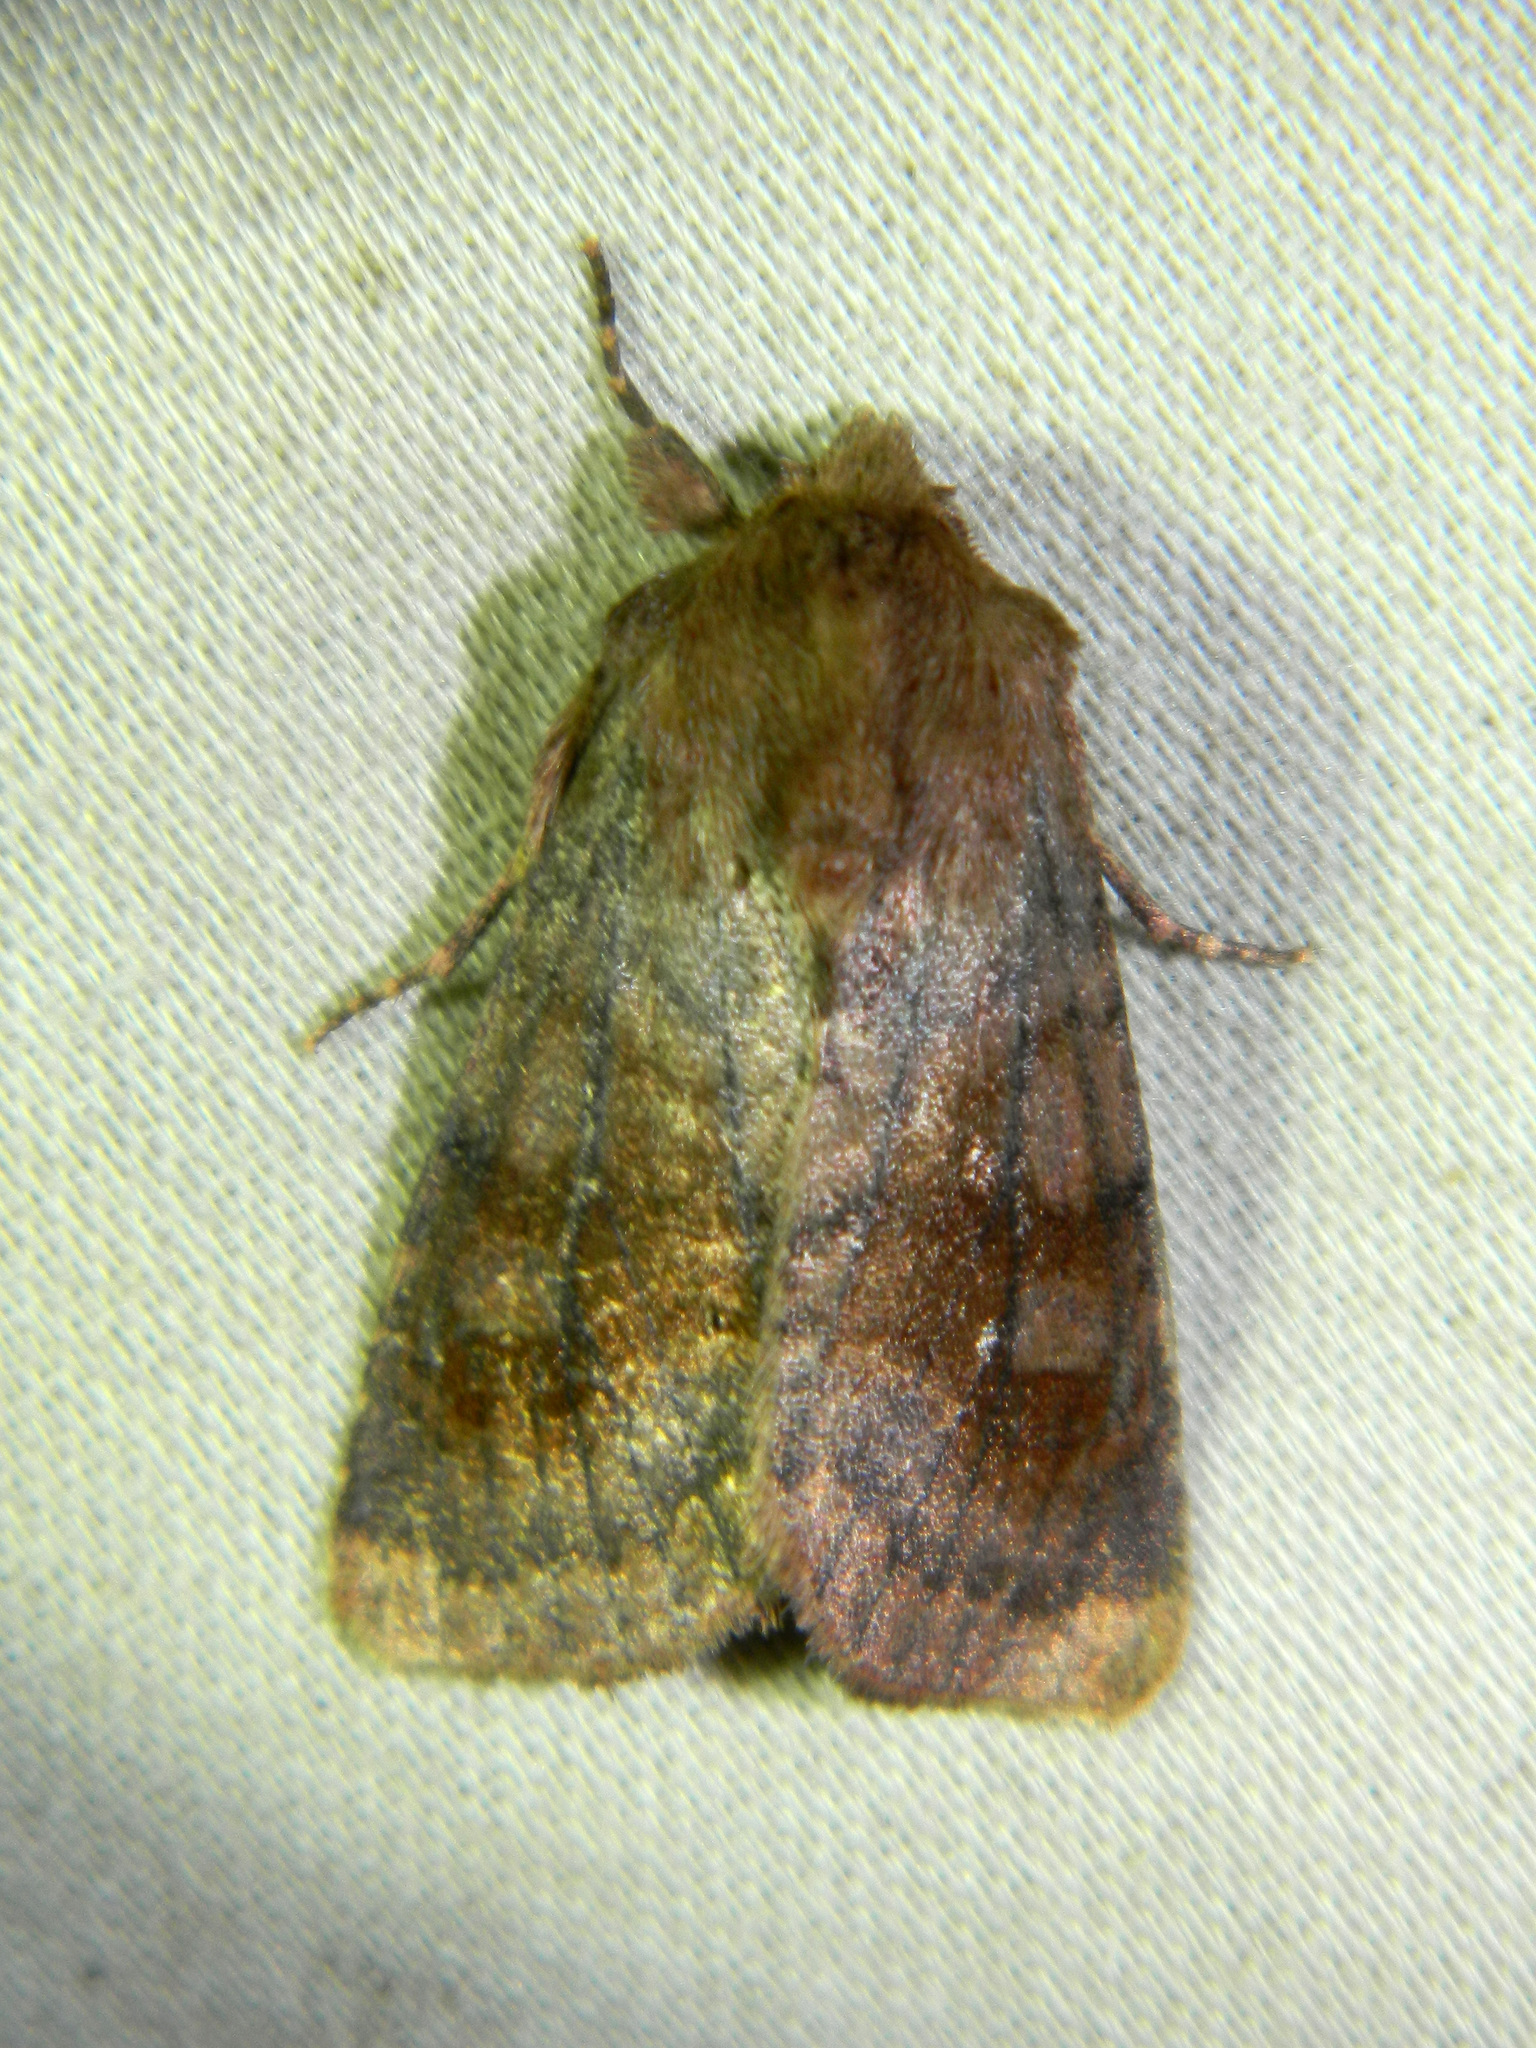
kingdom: Animalia
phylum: Arthropoda
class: Insecta
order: Lepidoptera
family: Noctuidae
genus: Nephelodes
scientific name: Nephelodes minians
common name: Bronzed cutworm
